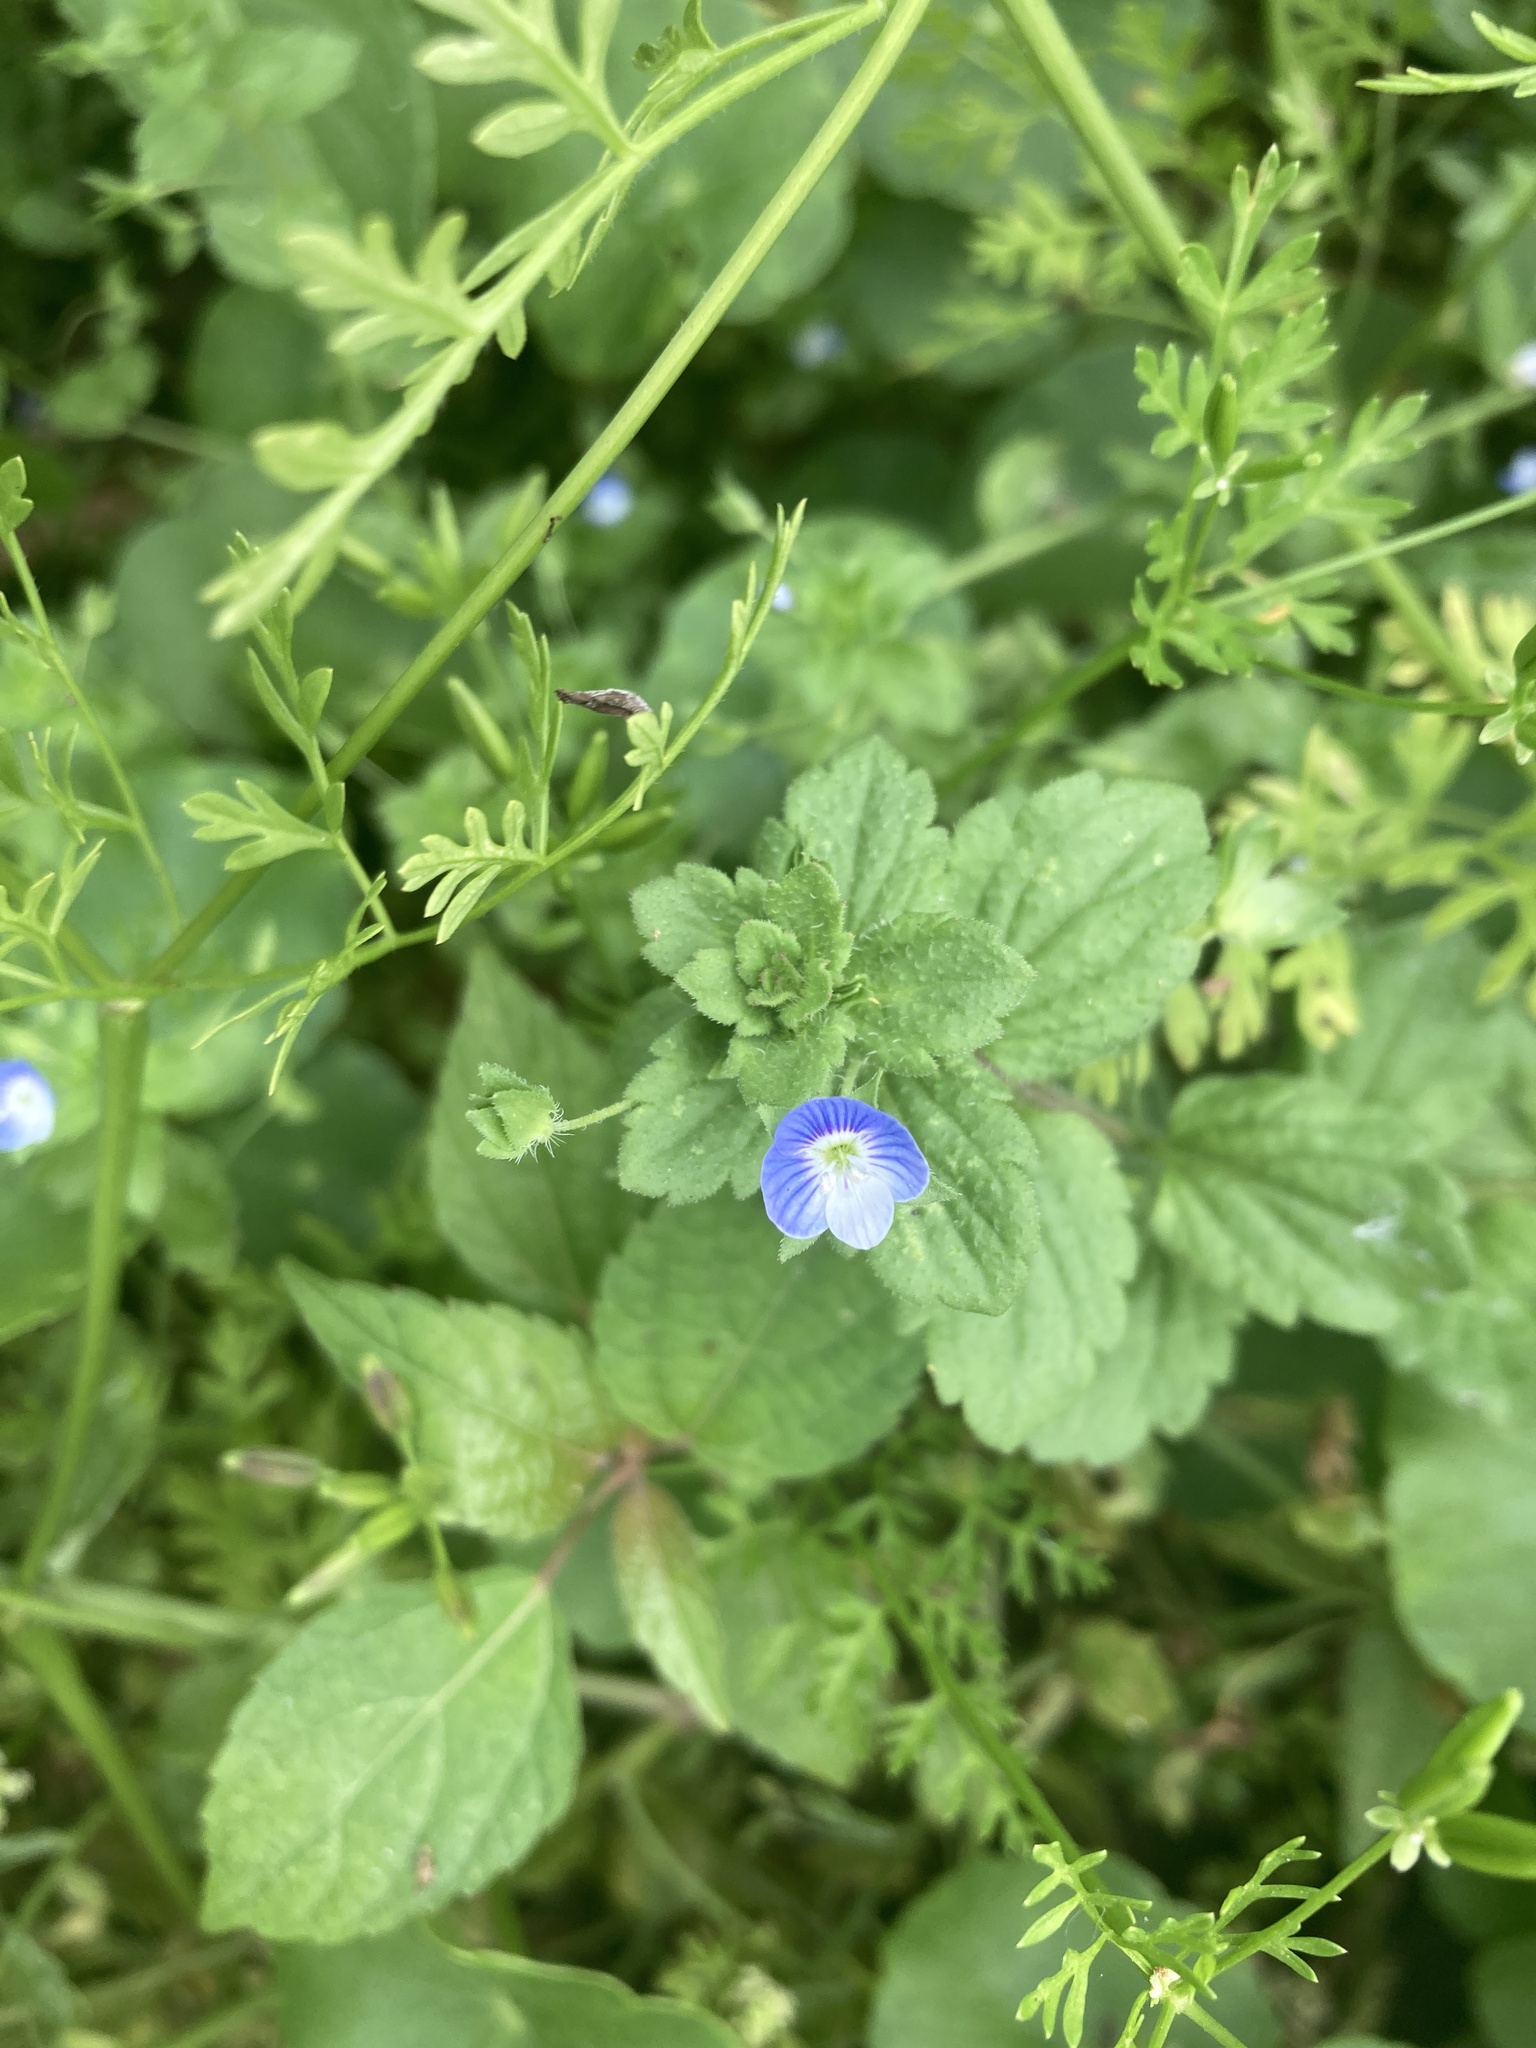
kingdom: Plantae
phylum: Tracheophyta
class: Magnoliopsida
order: Lamiales
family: Plantaginaceae
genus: Veronica
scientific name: Veronica persica
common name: Common field-speedwell
